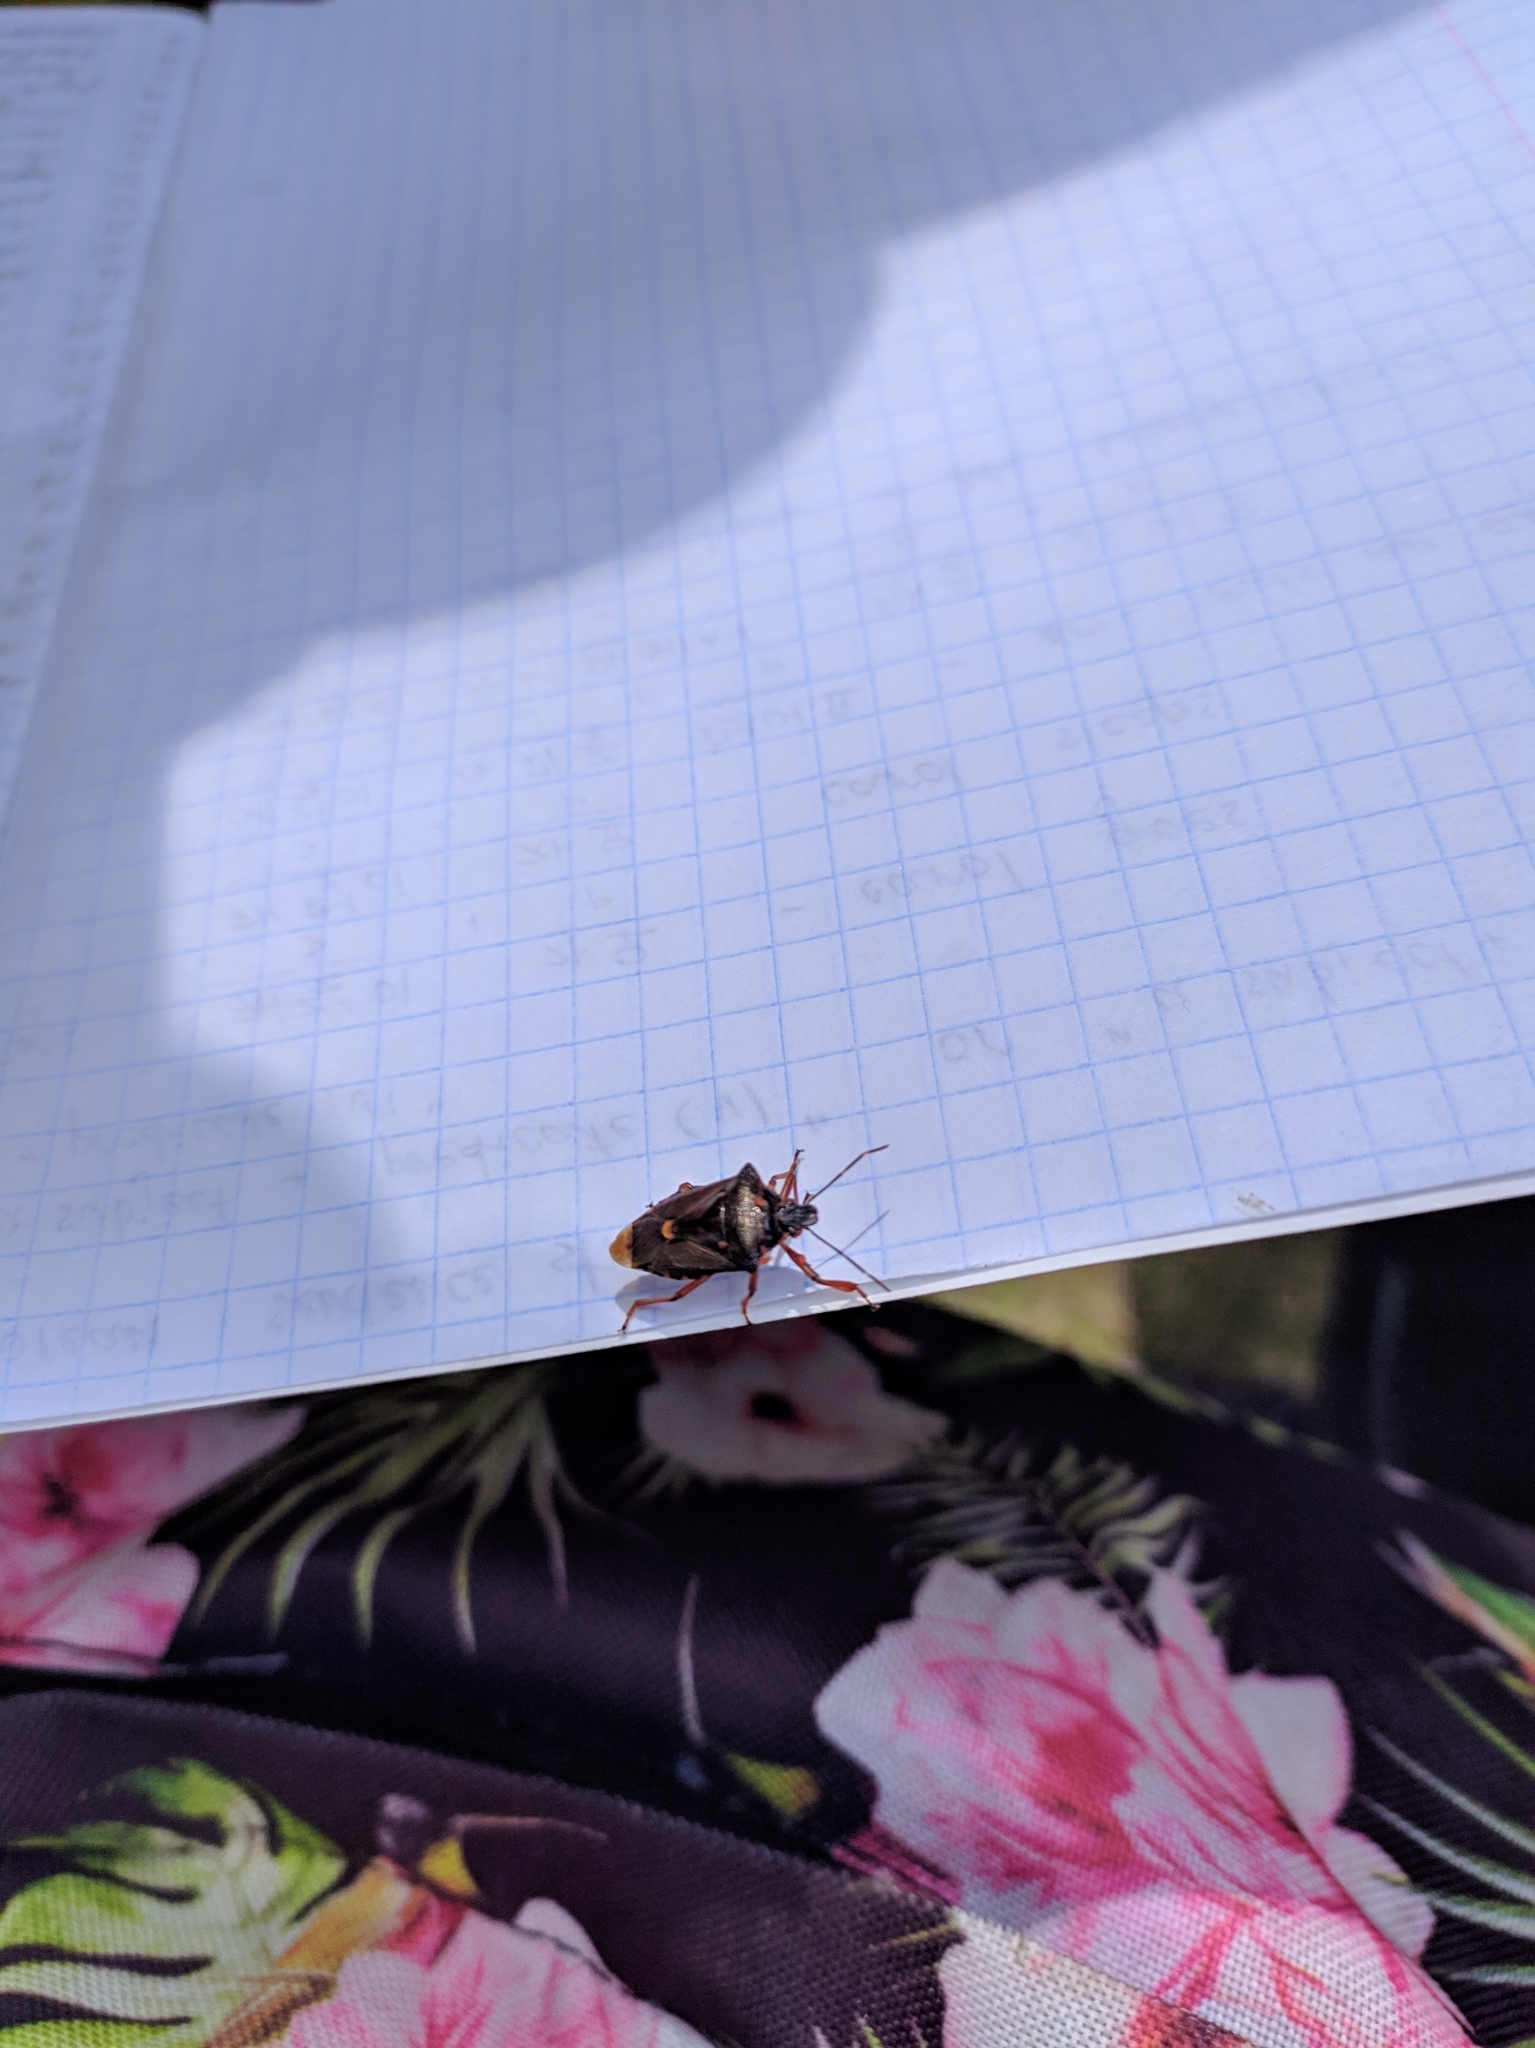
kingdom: Animalia
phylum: Arthropoda
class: Insecta
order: Hemiptera
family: Pentatomidae
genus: Pinthaeus
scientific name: Pinthaeus sanguinipes
